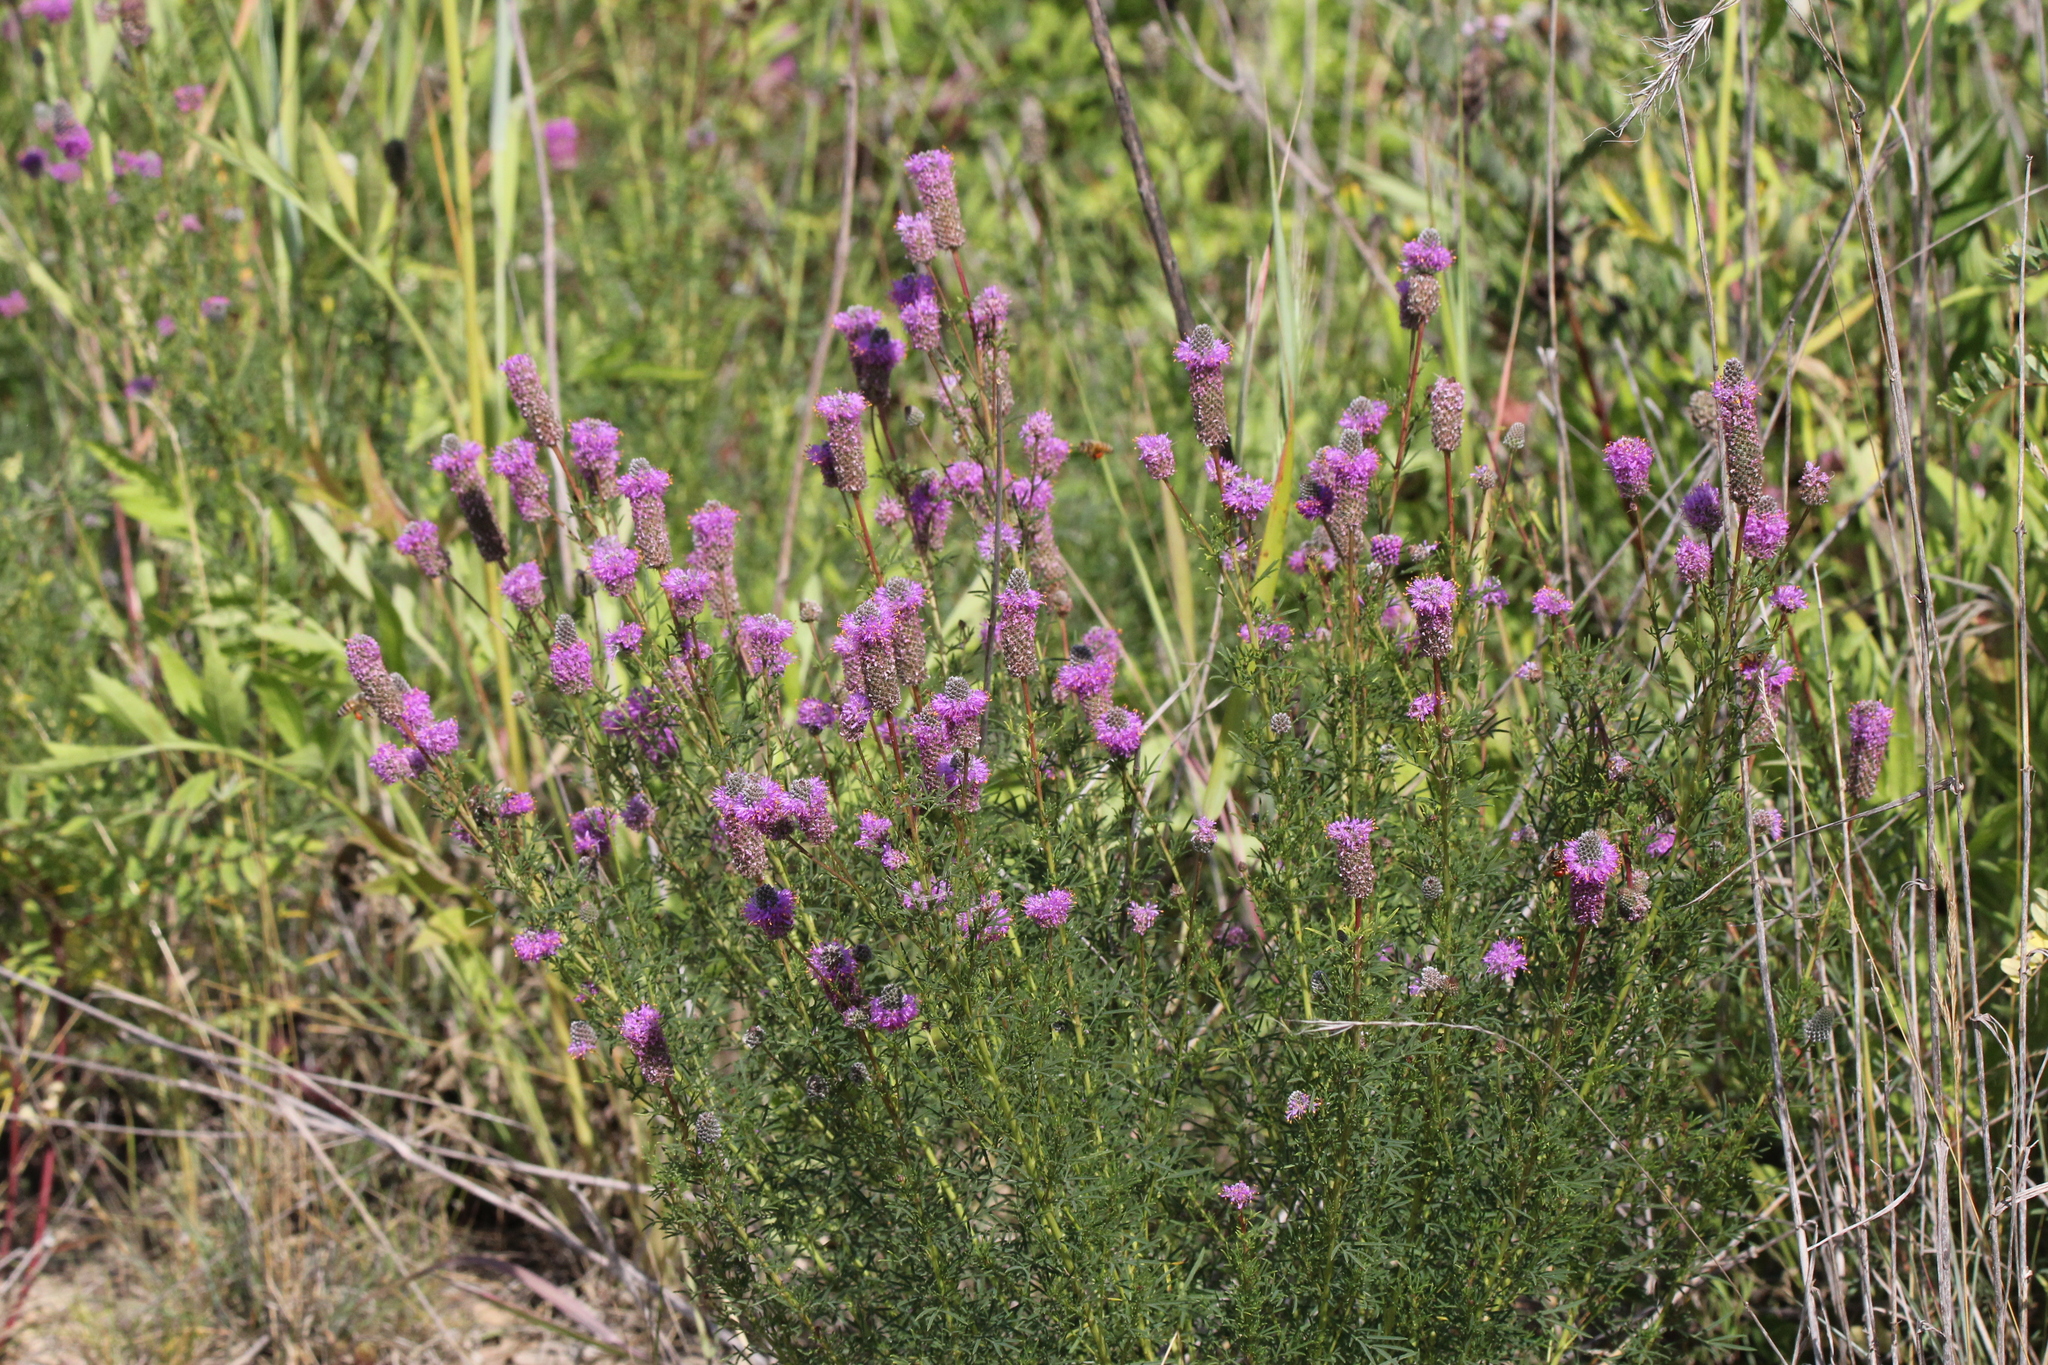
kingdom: Plantae
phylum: Tracheophyta
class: Magnoliopsida
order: Fabales
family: Fabaceae
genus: Dalea
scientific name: Dalea purpurea
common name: Purple prairie-clover
